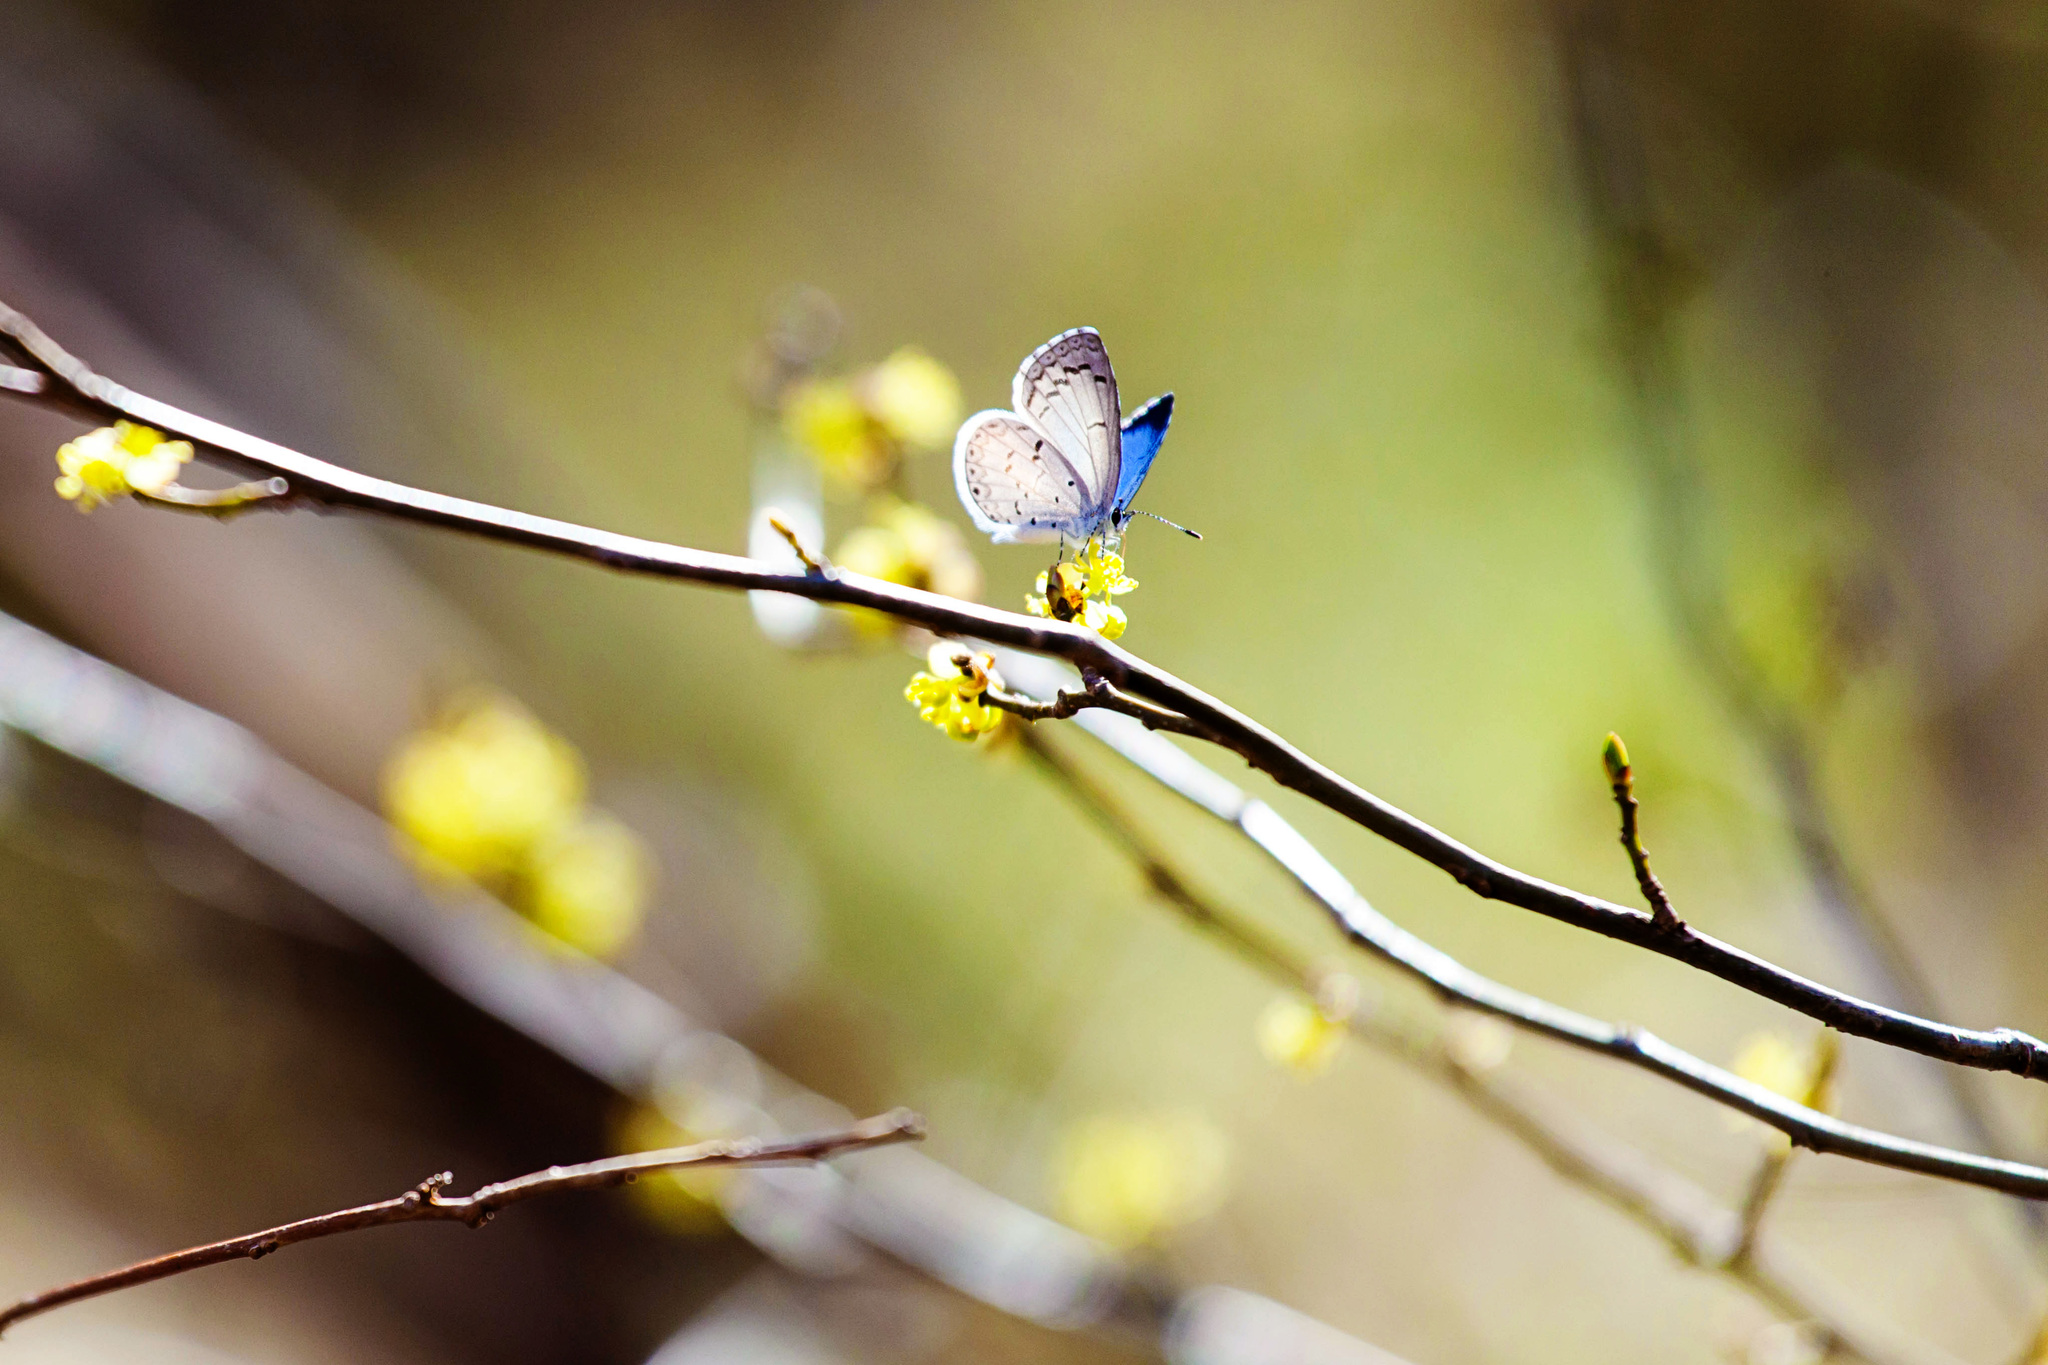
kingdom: Animalia
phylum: Arthropoda
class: Insecta
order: Lepidoptera
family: Lycaenidae
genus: Celastrina
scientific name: Celastrina ladon
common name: Spring azure
